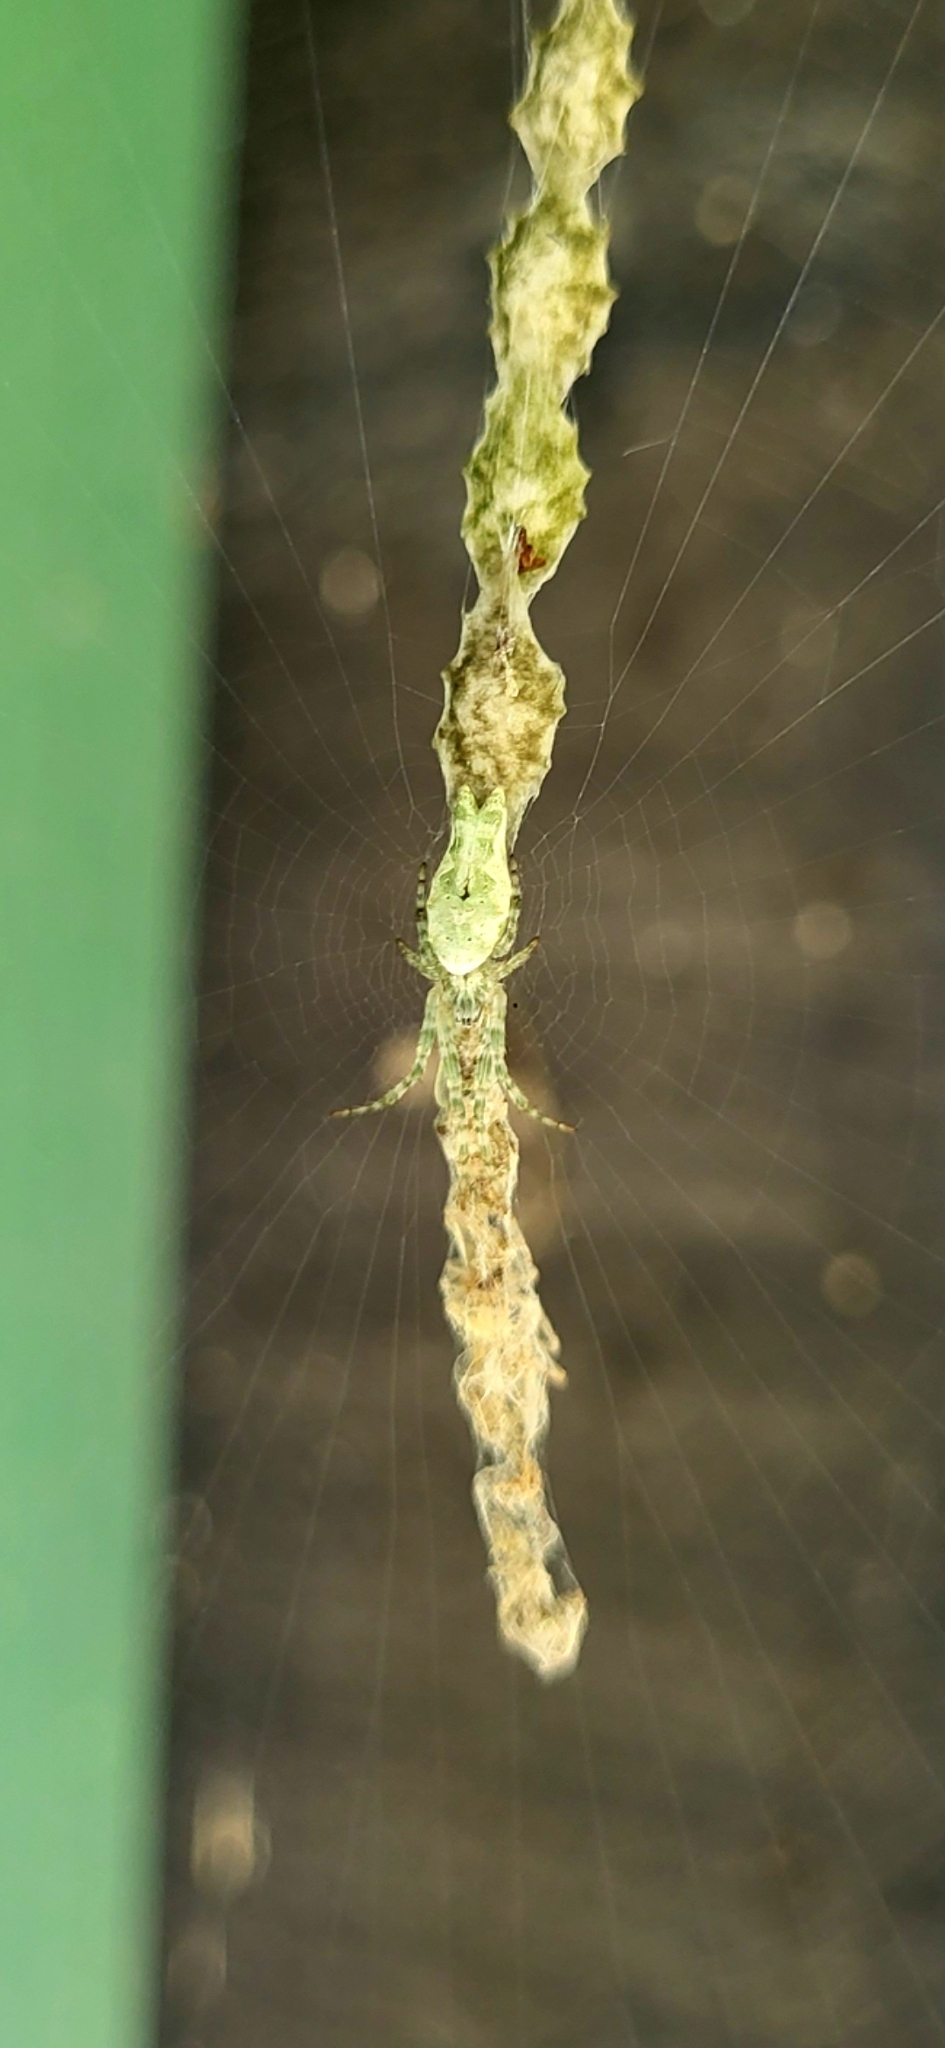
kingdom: Animalia
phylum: Arthropoda
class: Arachnida
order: Araneae
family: Araneidae
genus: Allocyclosa
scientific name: Allocyclosa bifurca
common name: Orb weavers
